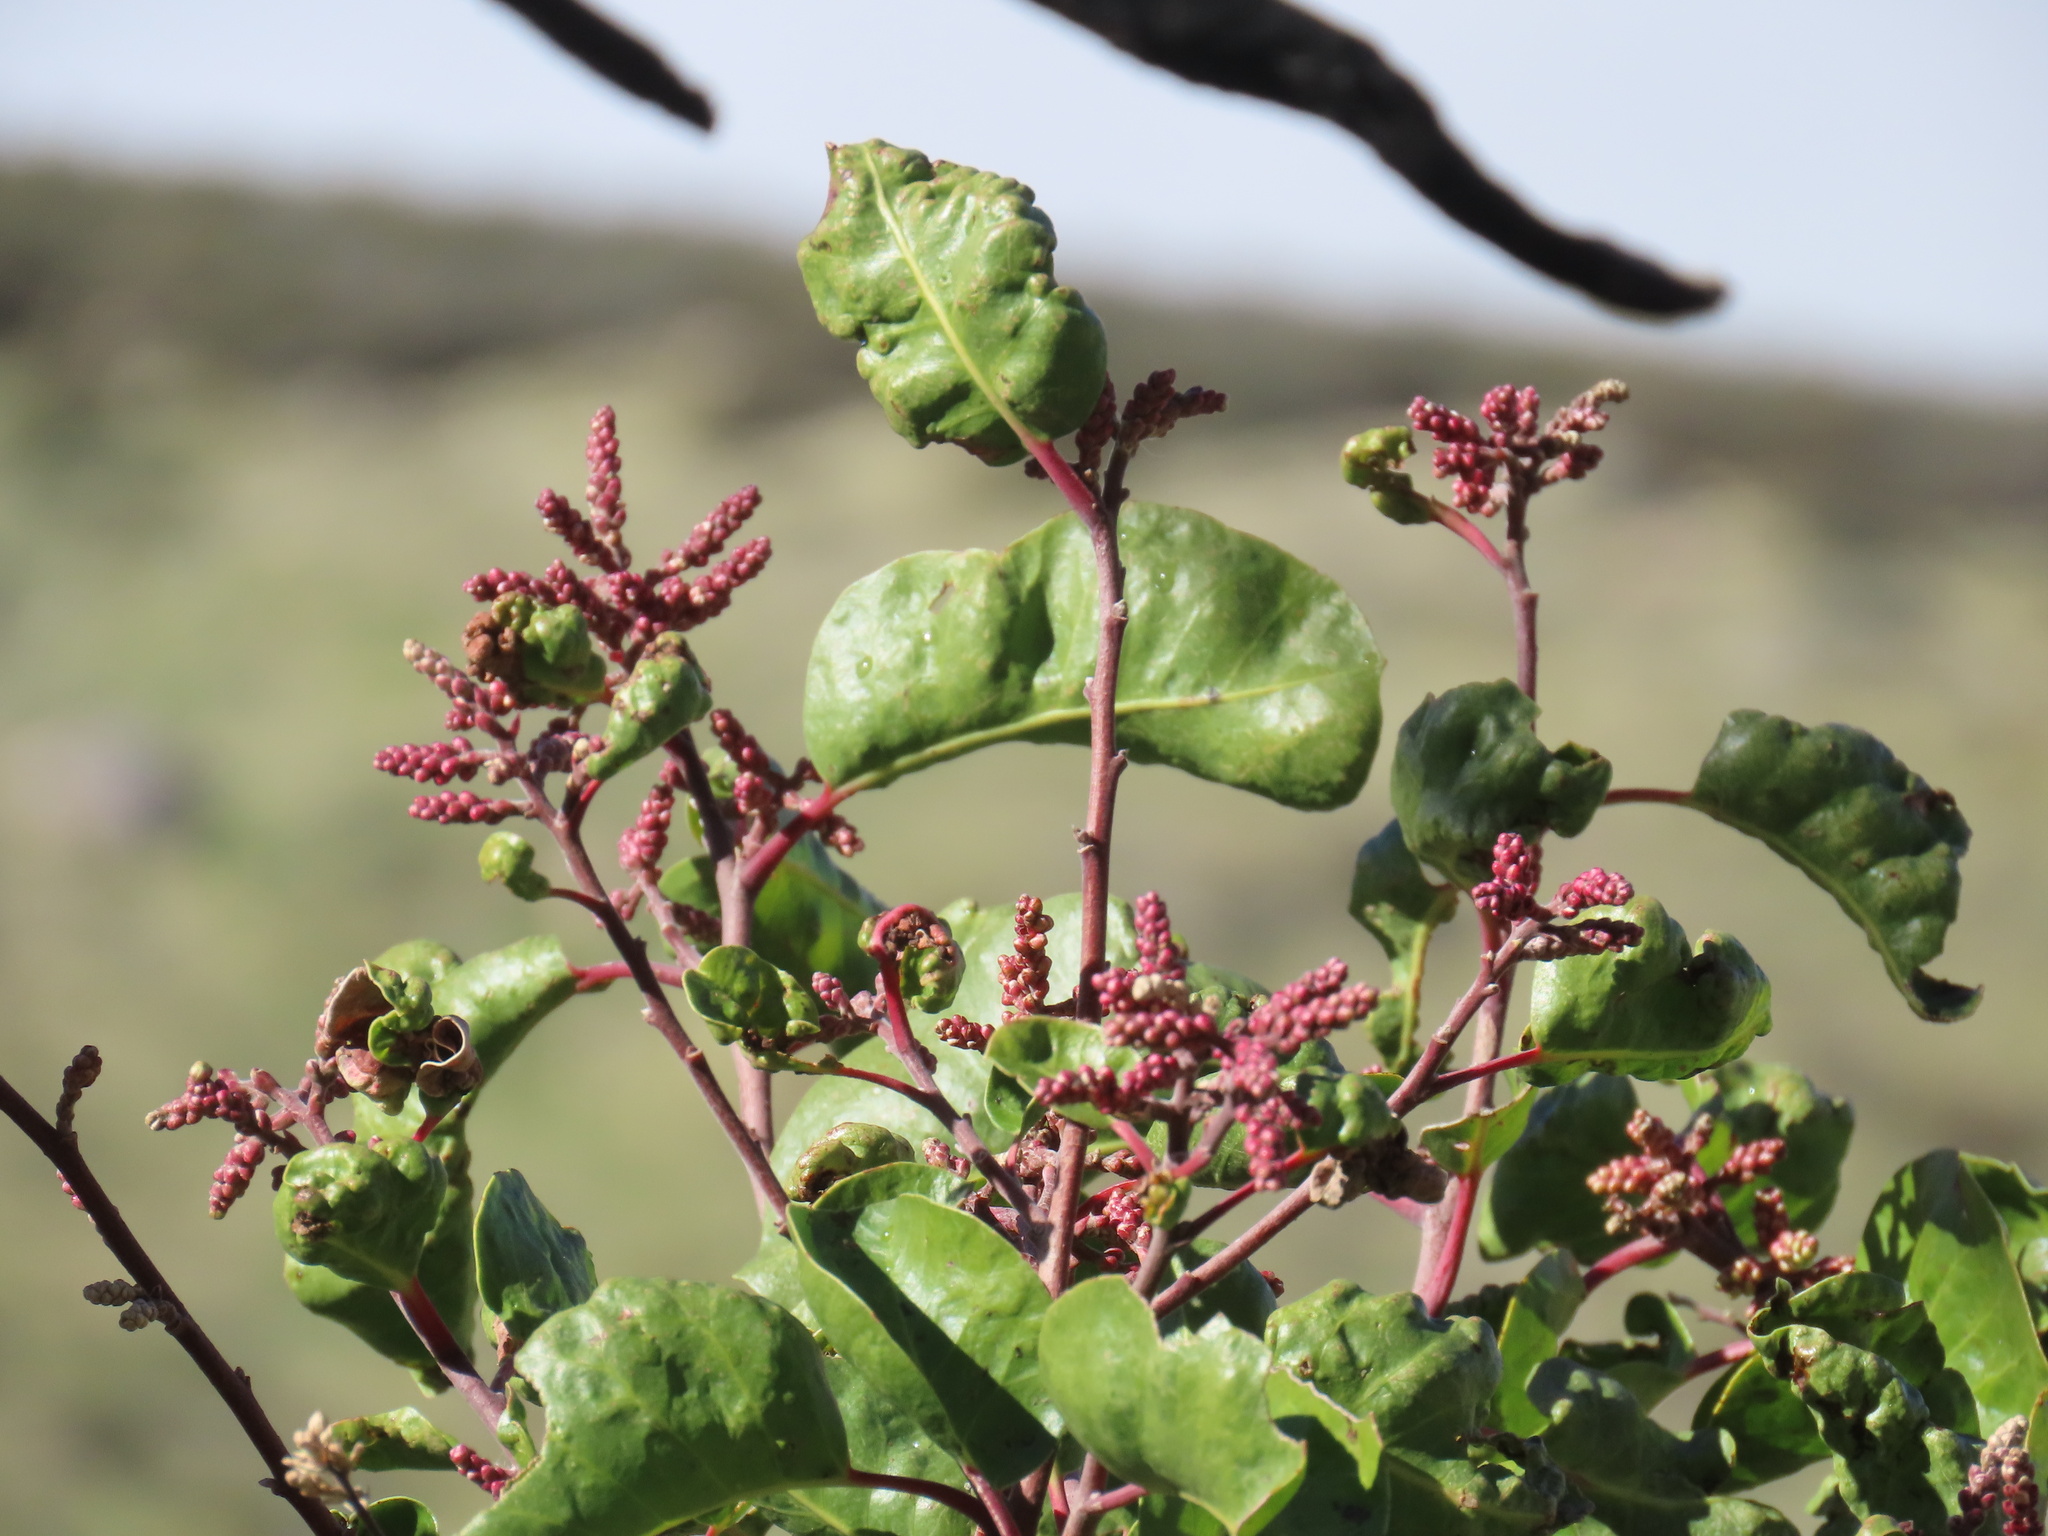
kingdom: Plantae
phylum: Tracheophyta
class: Magnoliopsida
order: Sapindales
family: Anacardiaceae
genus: Rhus
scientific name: Rhus ovata
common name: Sugar sumac
